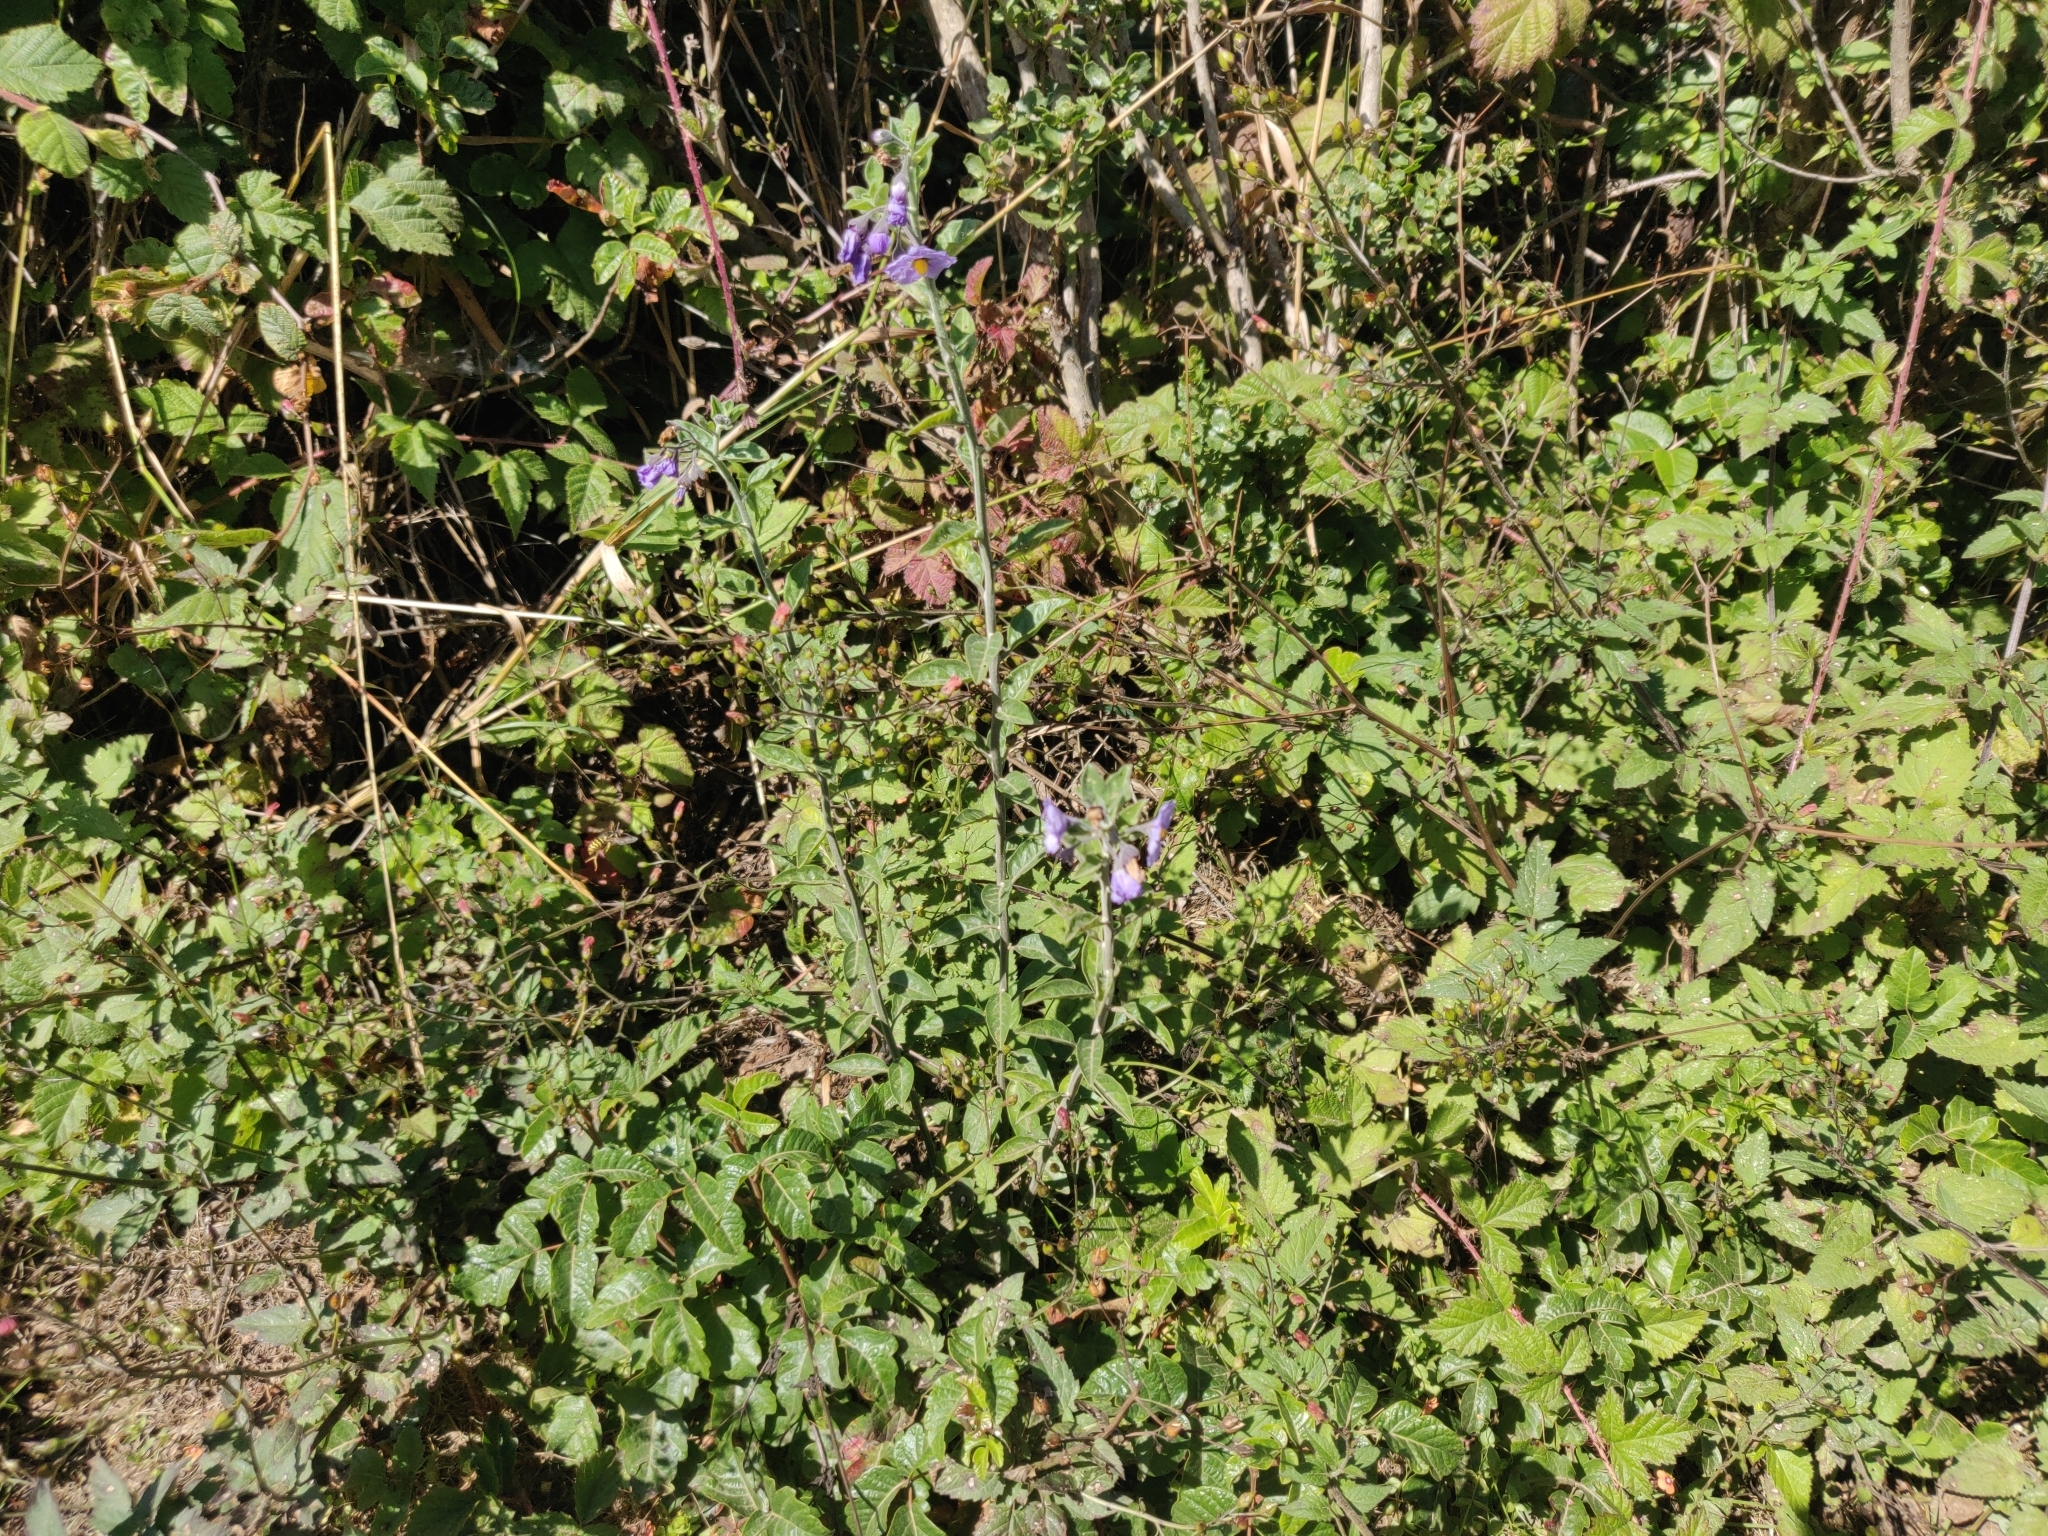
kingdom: Plantae
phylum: Tracheophyta
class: Magnoliopsida
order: Solanales
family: Solanaceae
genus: Solanum
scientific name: Solanum umbelliferum
